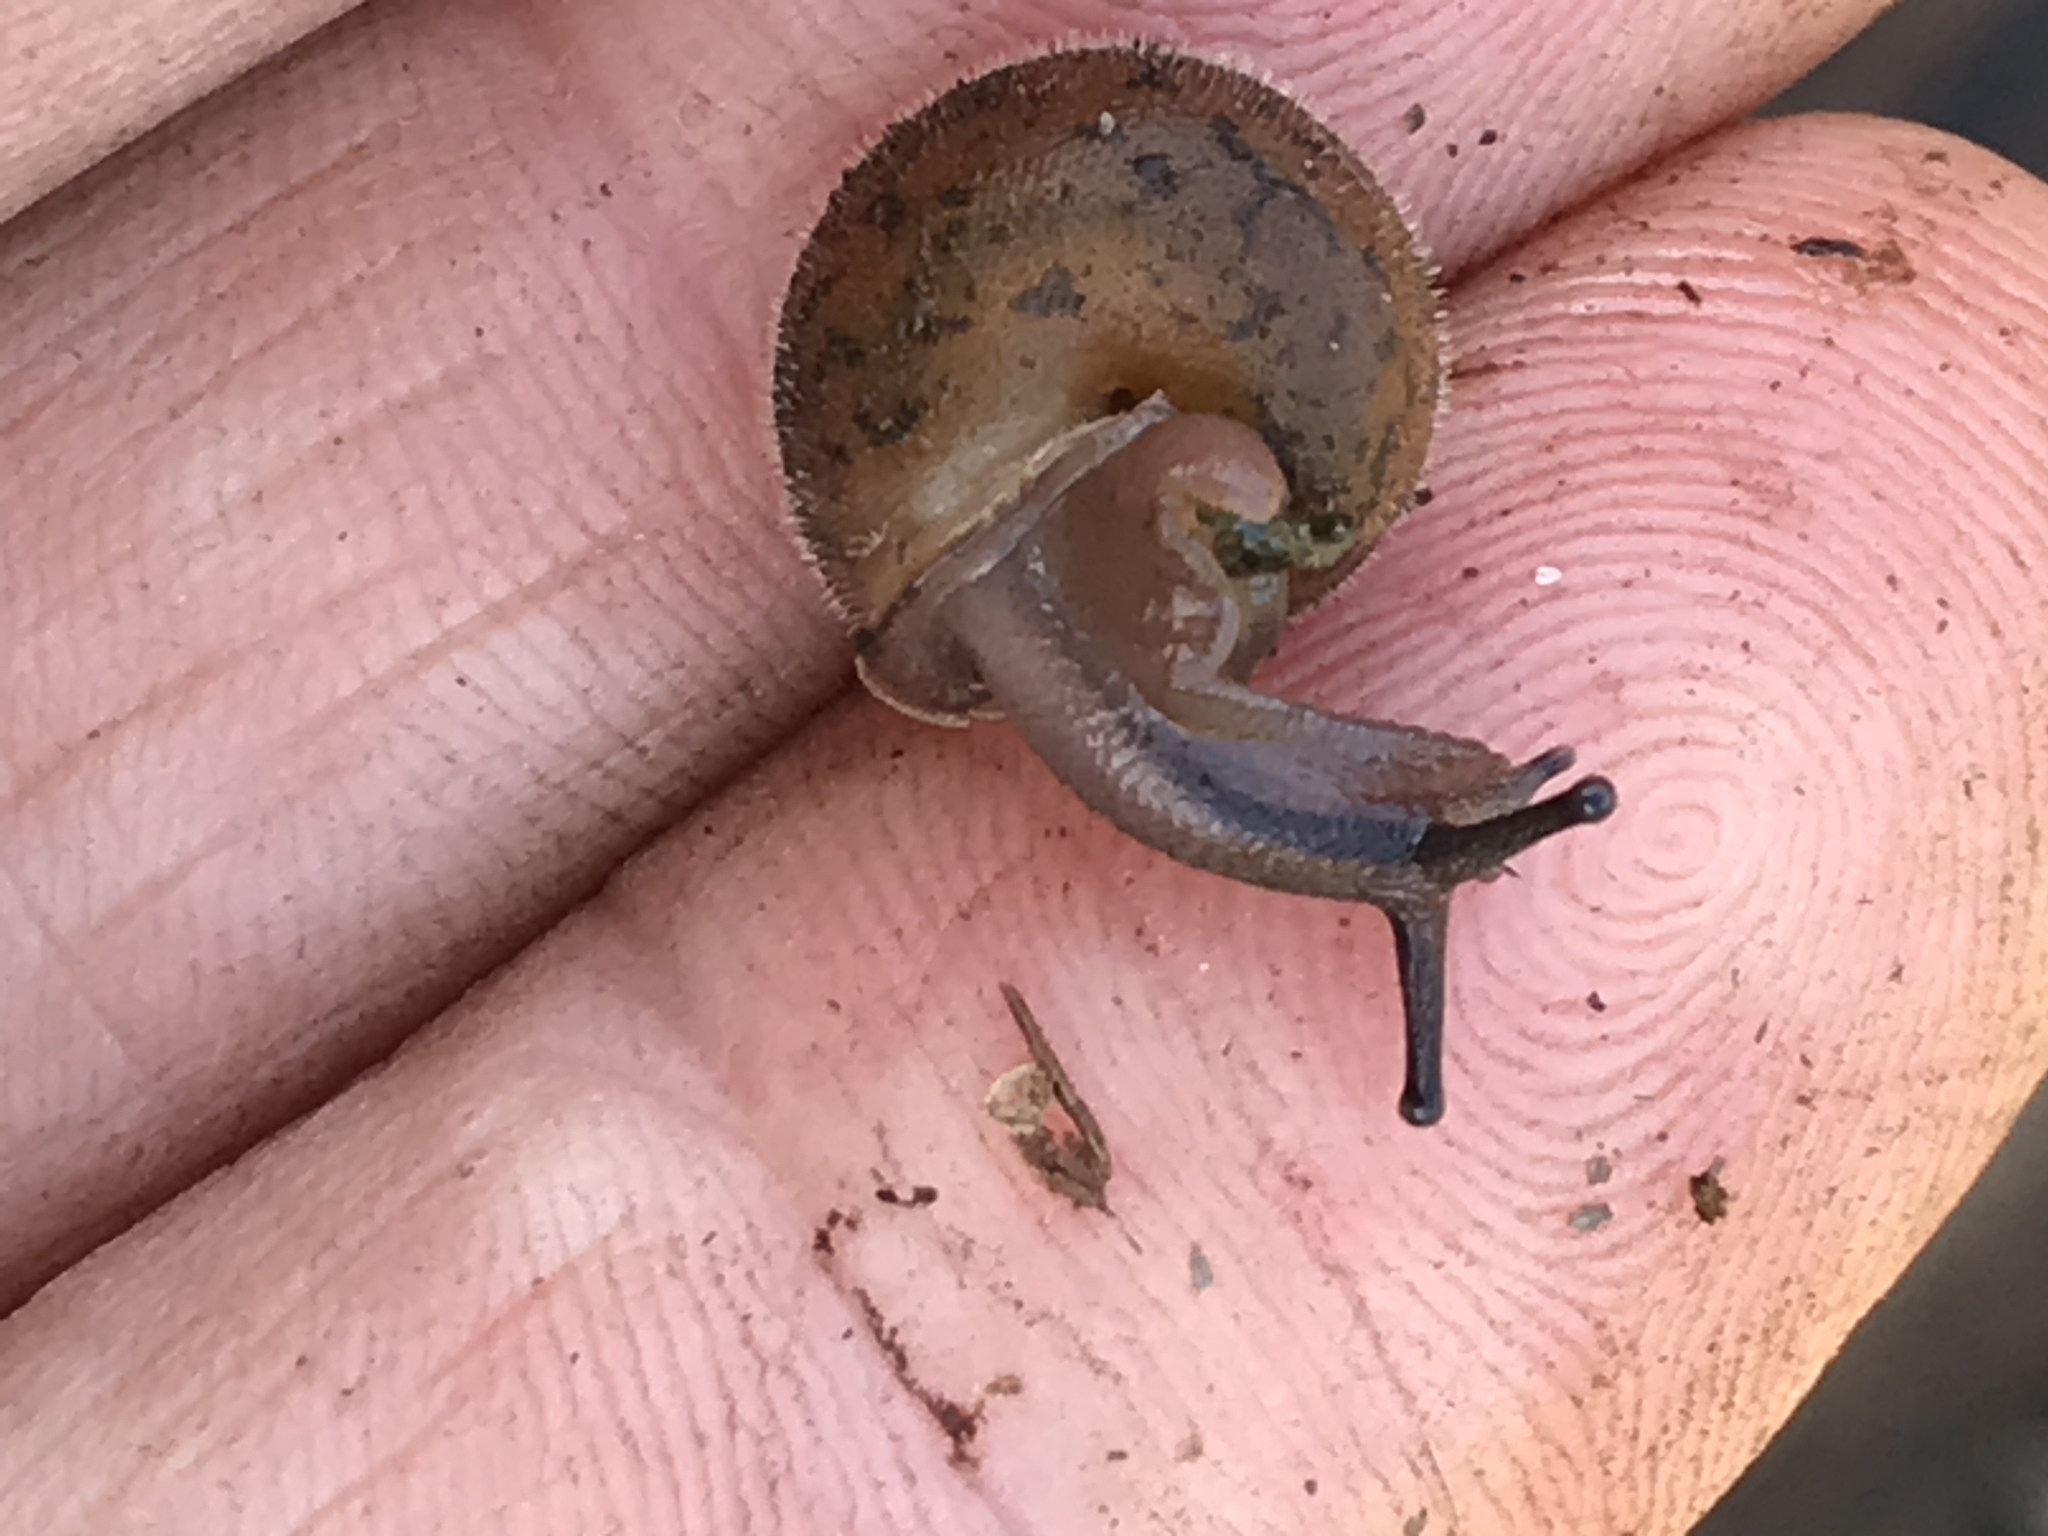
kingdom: Animalia
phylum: Mollusca
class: Gastropoda
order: Stylommatophora
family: Polygyridae
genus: Vespericola
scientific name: Vespericola megasoma
